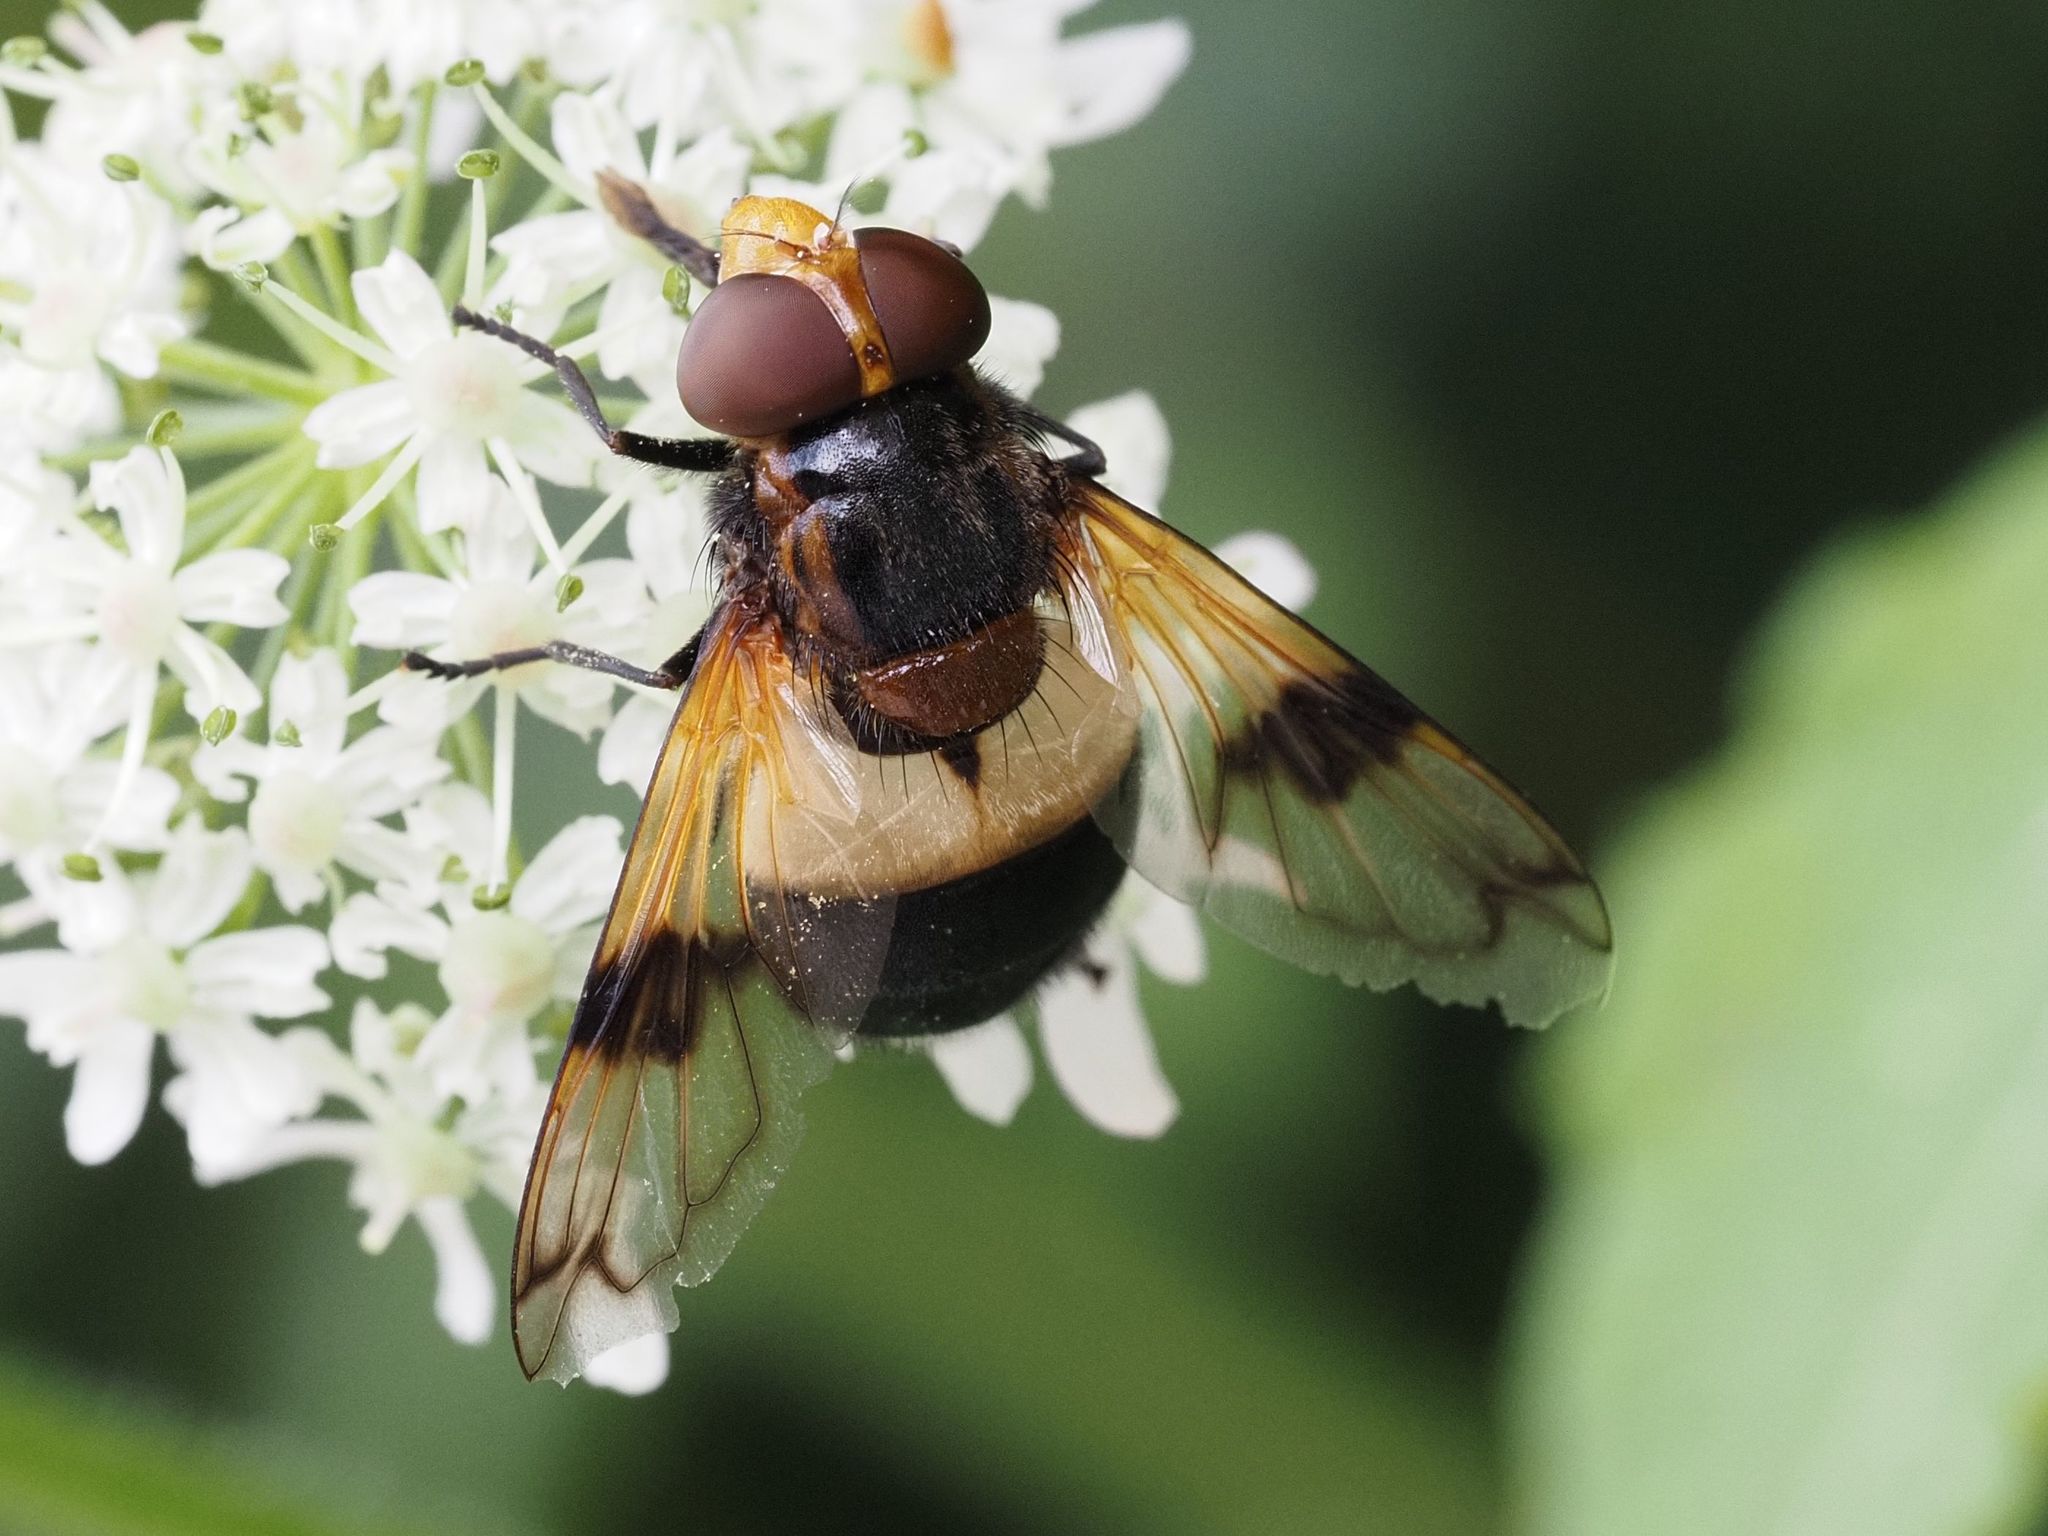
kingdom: Animalia
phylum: Arthropoda
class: Insecta
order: Diptera
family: Syrphidae
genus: Volucella
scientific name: Volucella pellucens
